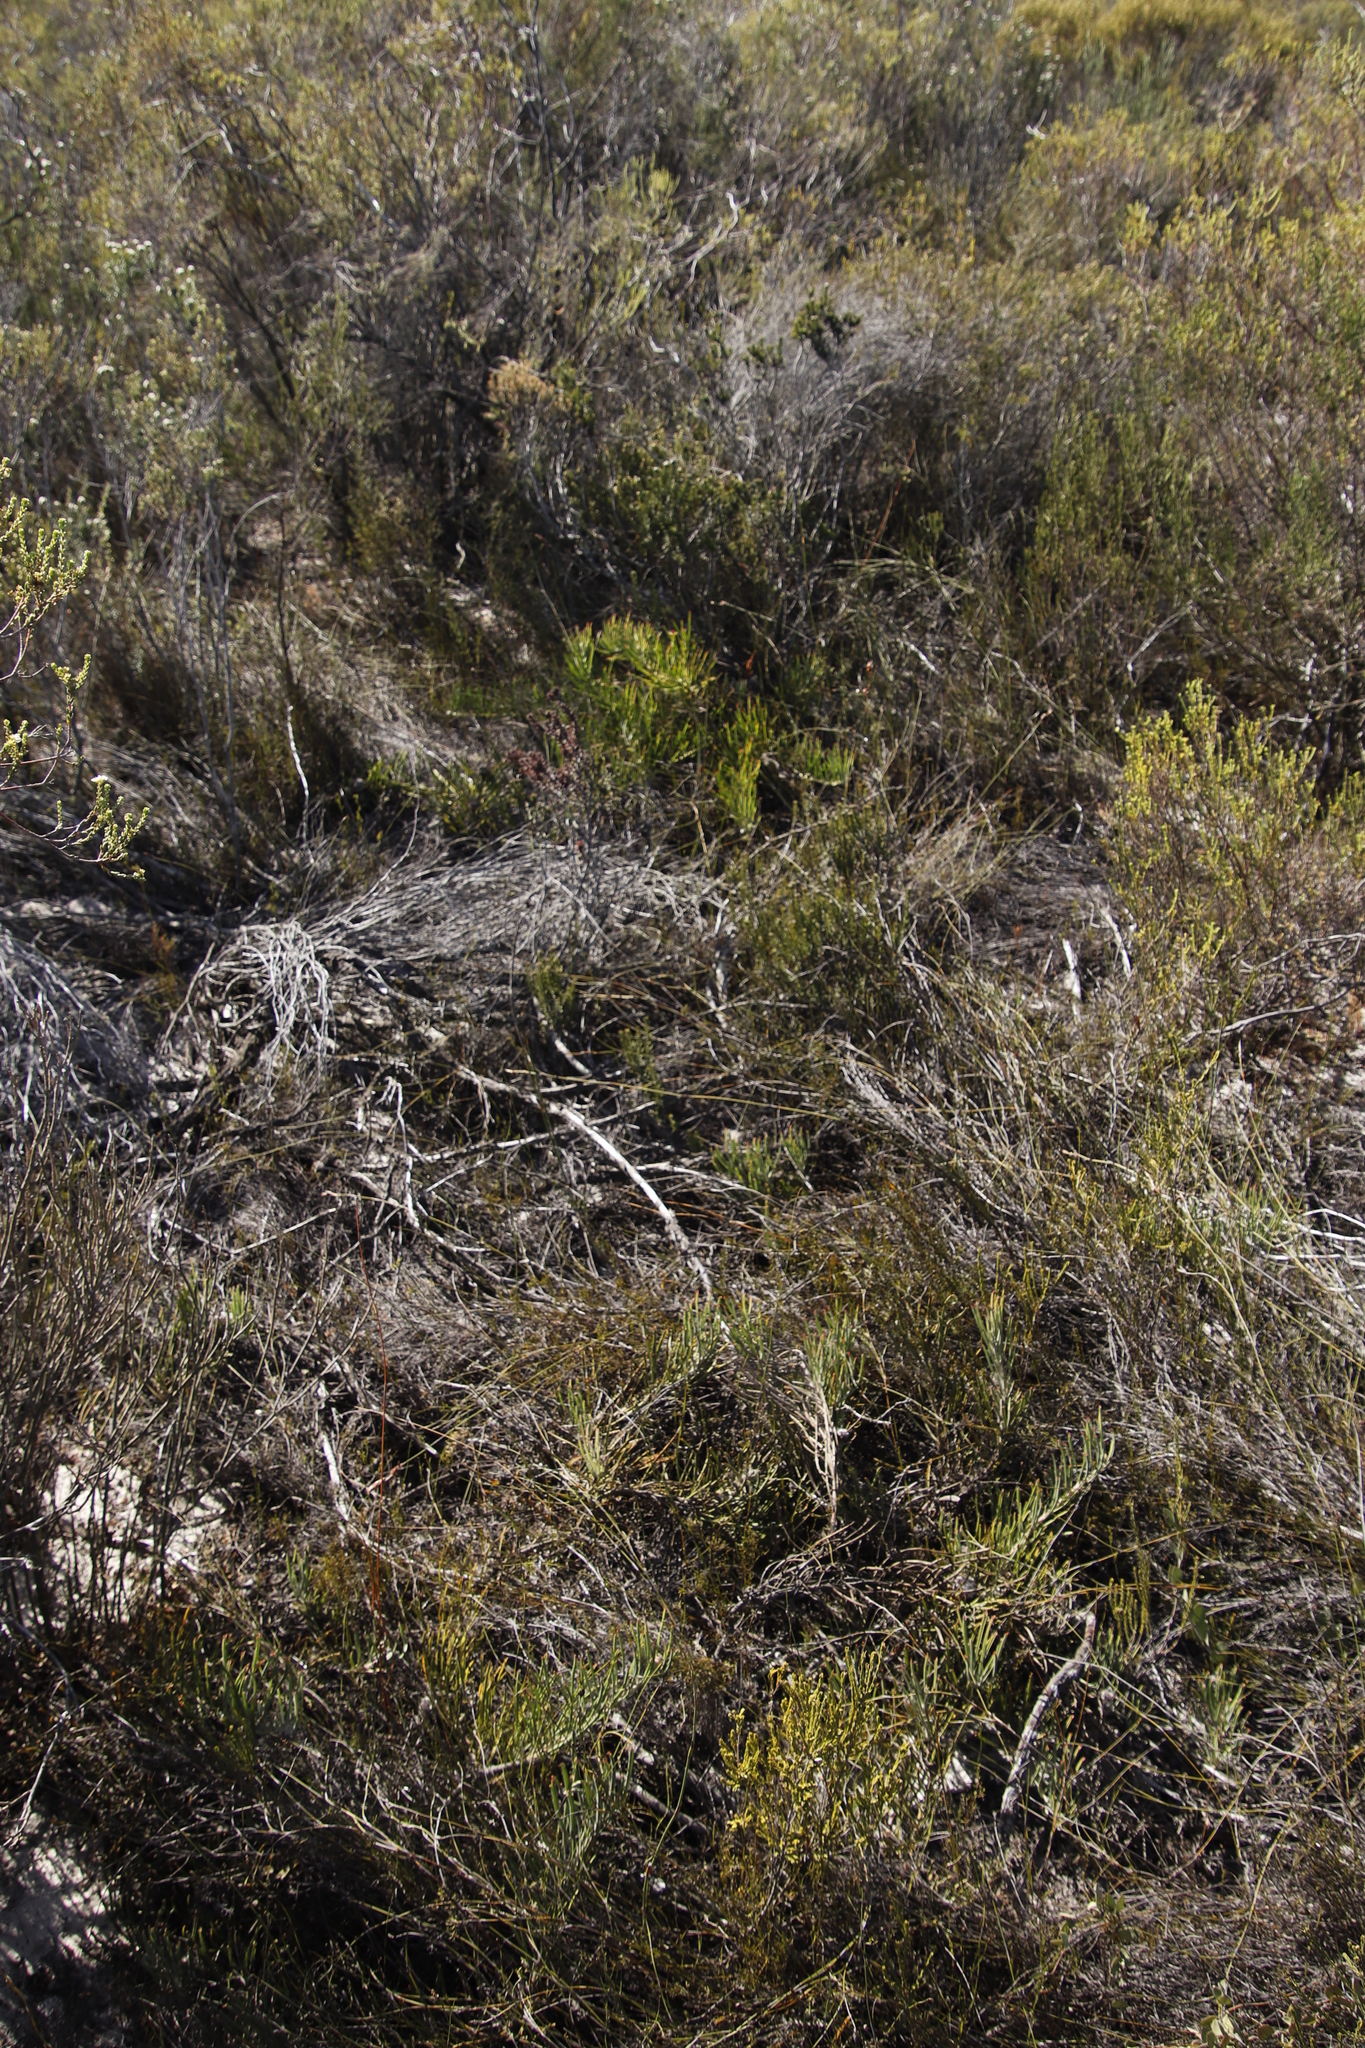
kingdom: Plantae
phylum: Tracheophyta
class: Magnoliopsida
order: Proteales
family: Proteaceae
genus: Leucospermum
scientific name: Leucospermum hypophyllocarpodendron
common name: Snakestem pincushion
